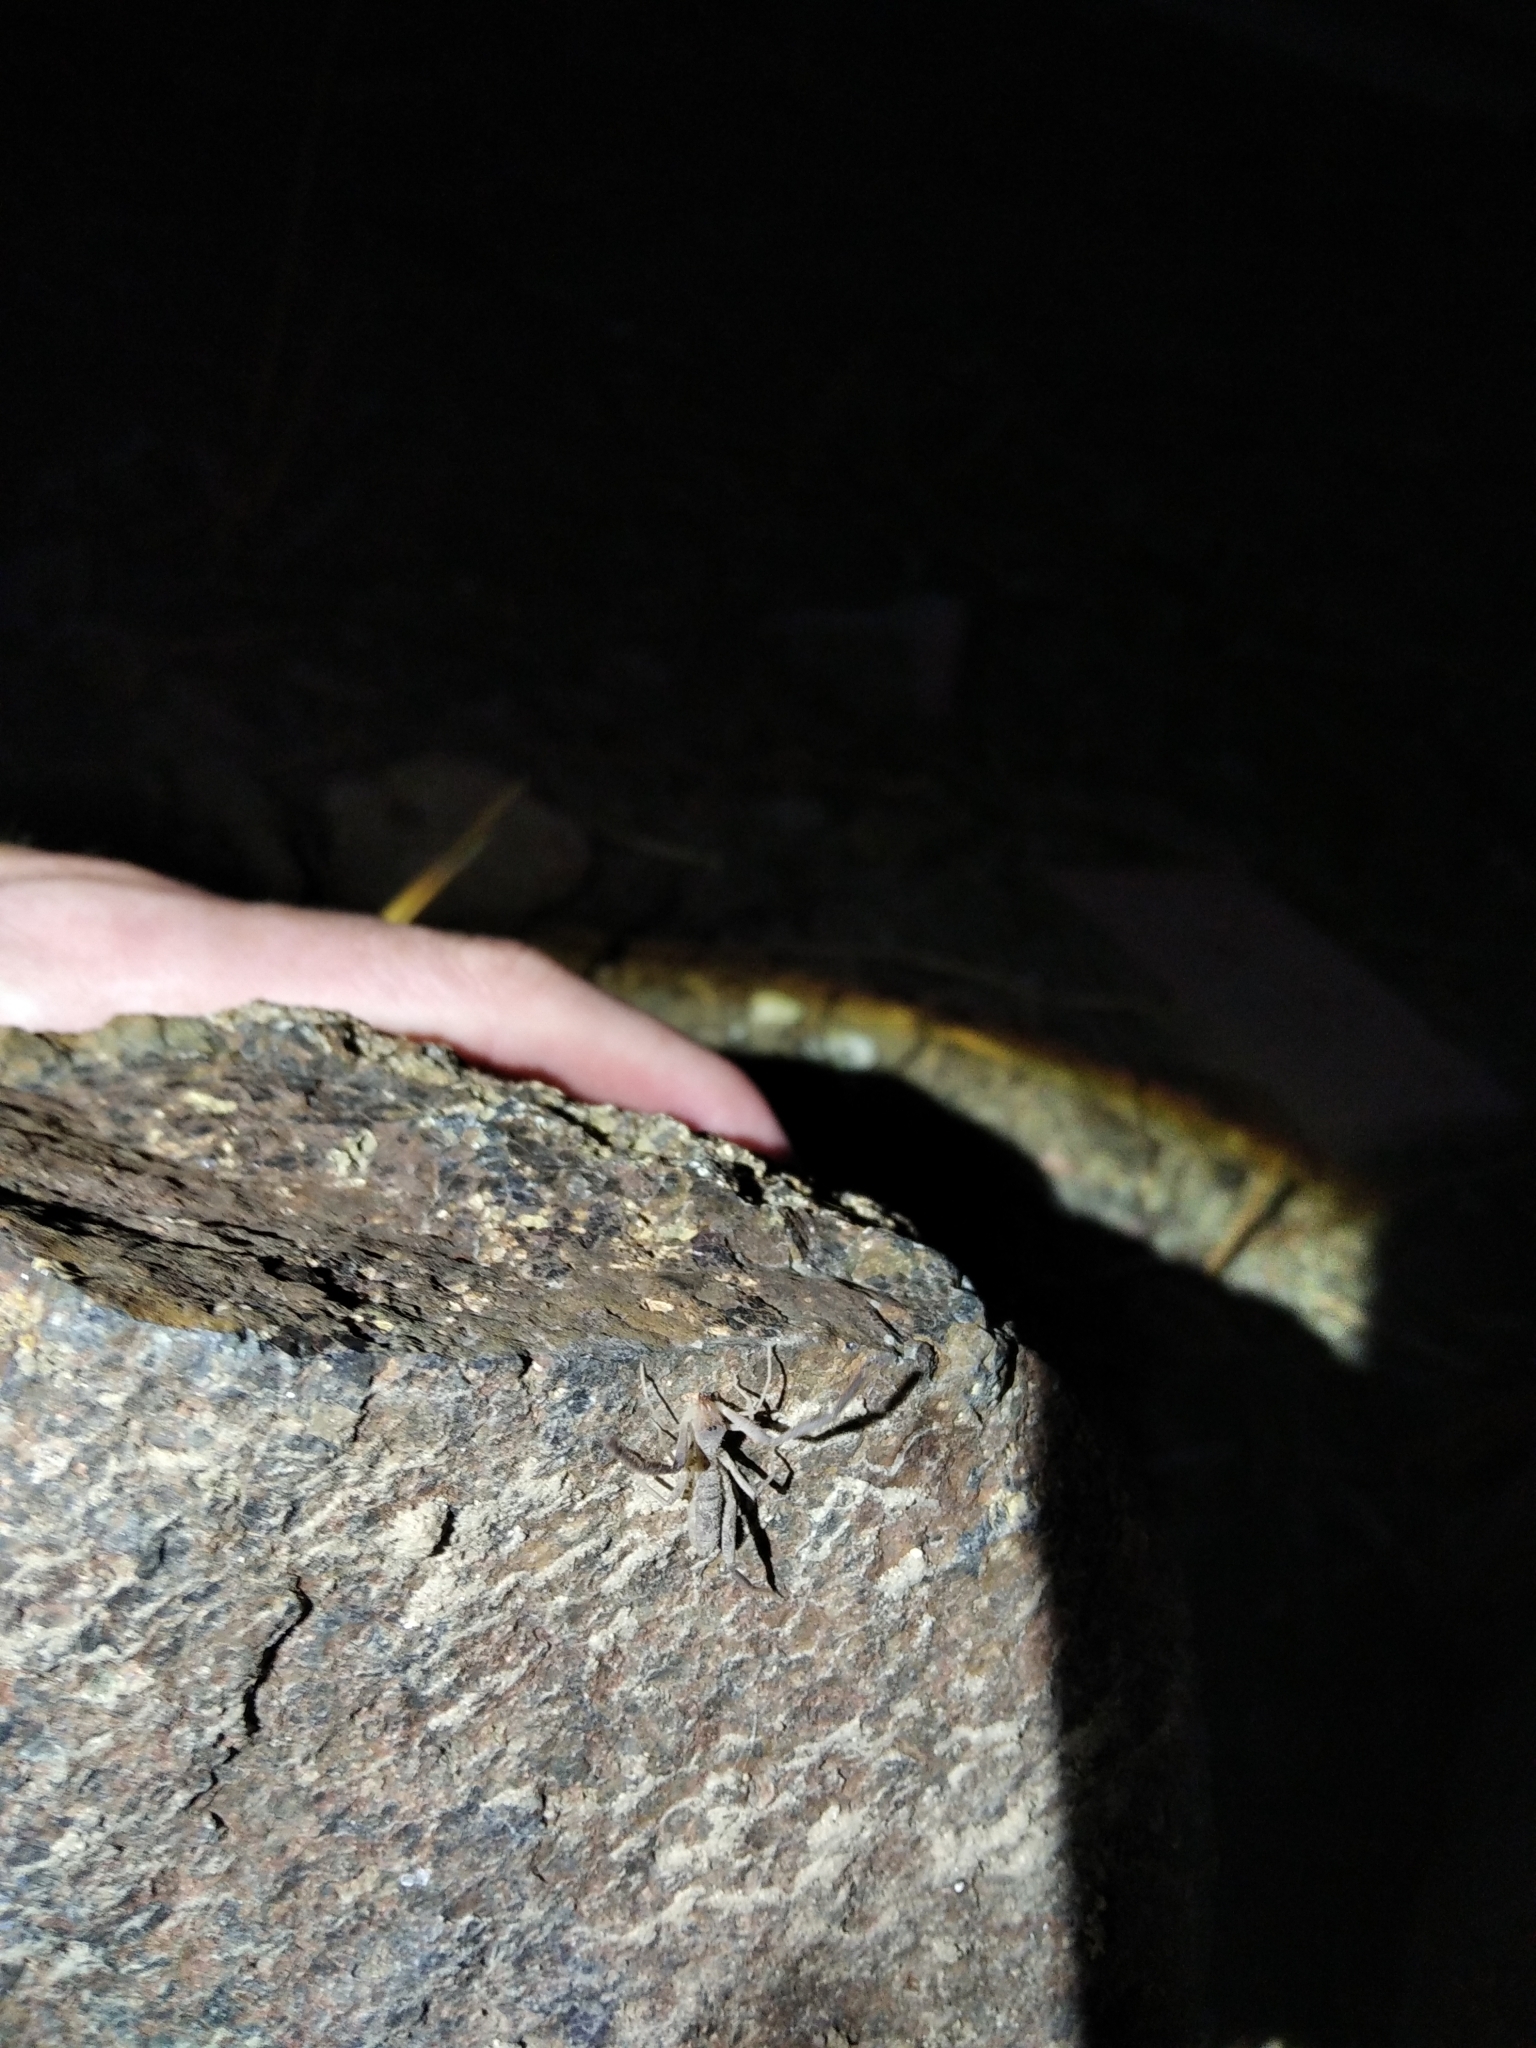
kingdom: Animalia
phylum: Arthropoda
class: Arachnida
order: Solifugae
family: Daesiidae
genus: Blossia
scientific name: Blossia falcifera
